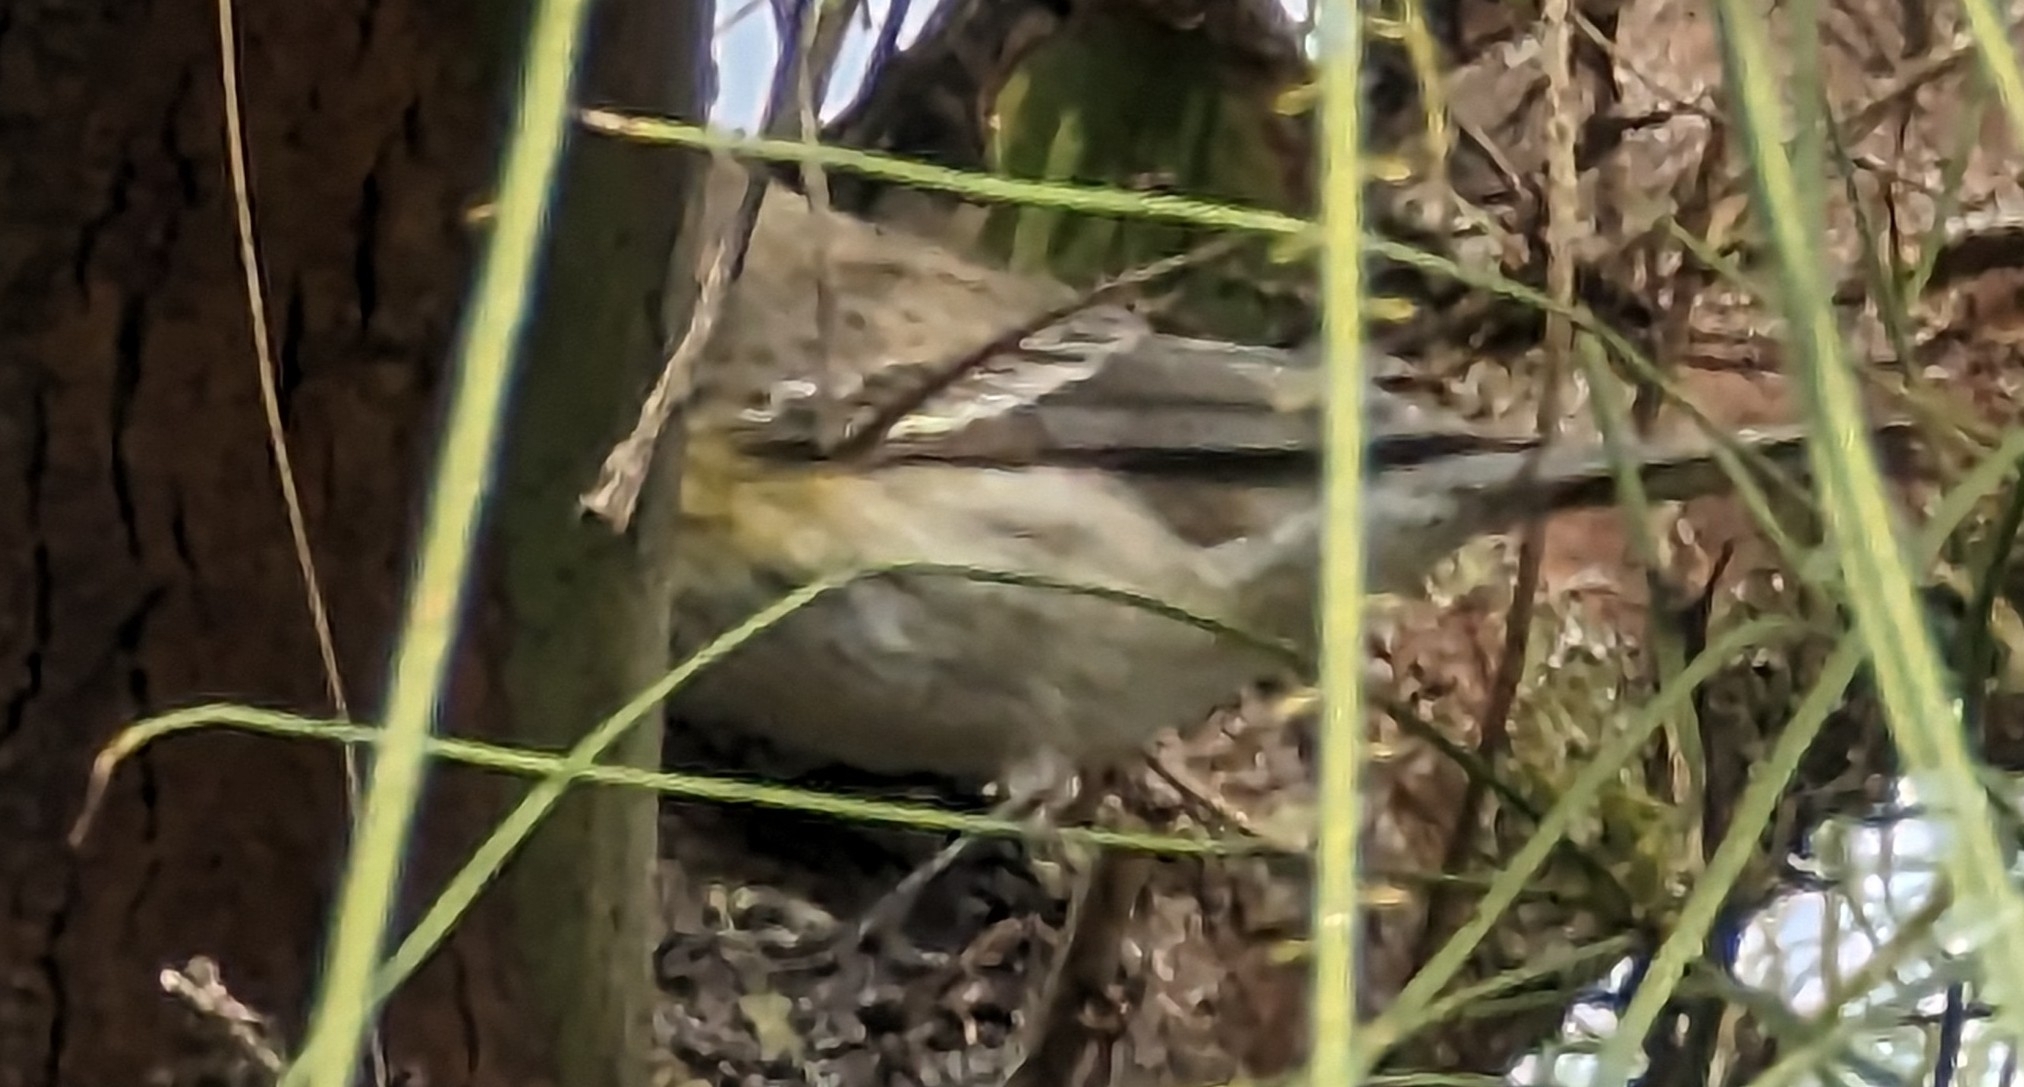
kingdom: Animalia
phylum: Chordata
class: Aves
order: Passeriformes
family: Parulidae
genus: Setophaga
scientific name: Setophaga coronata
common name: Myrtle warbler
